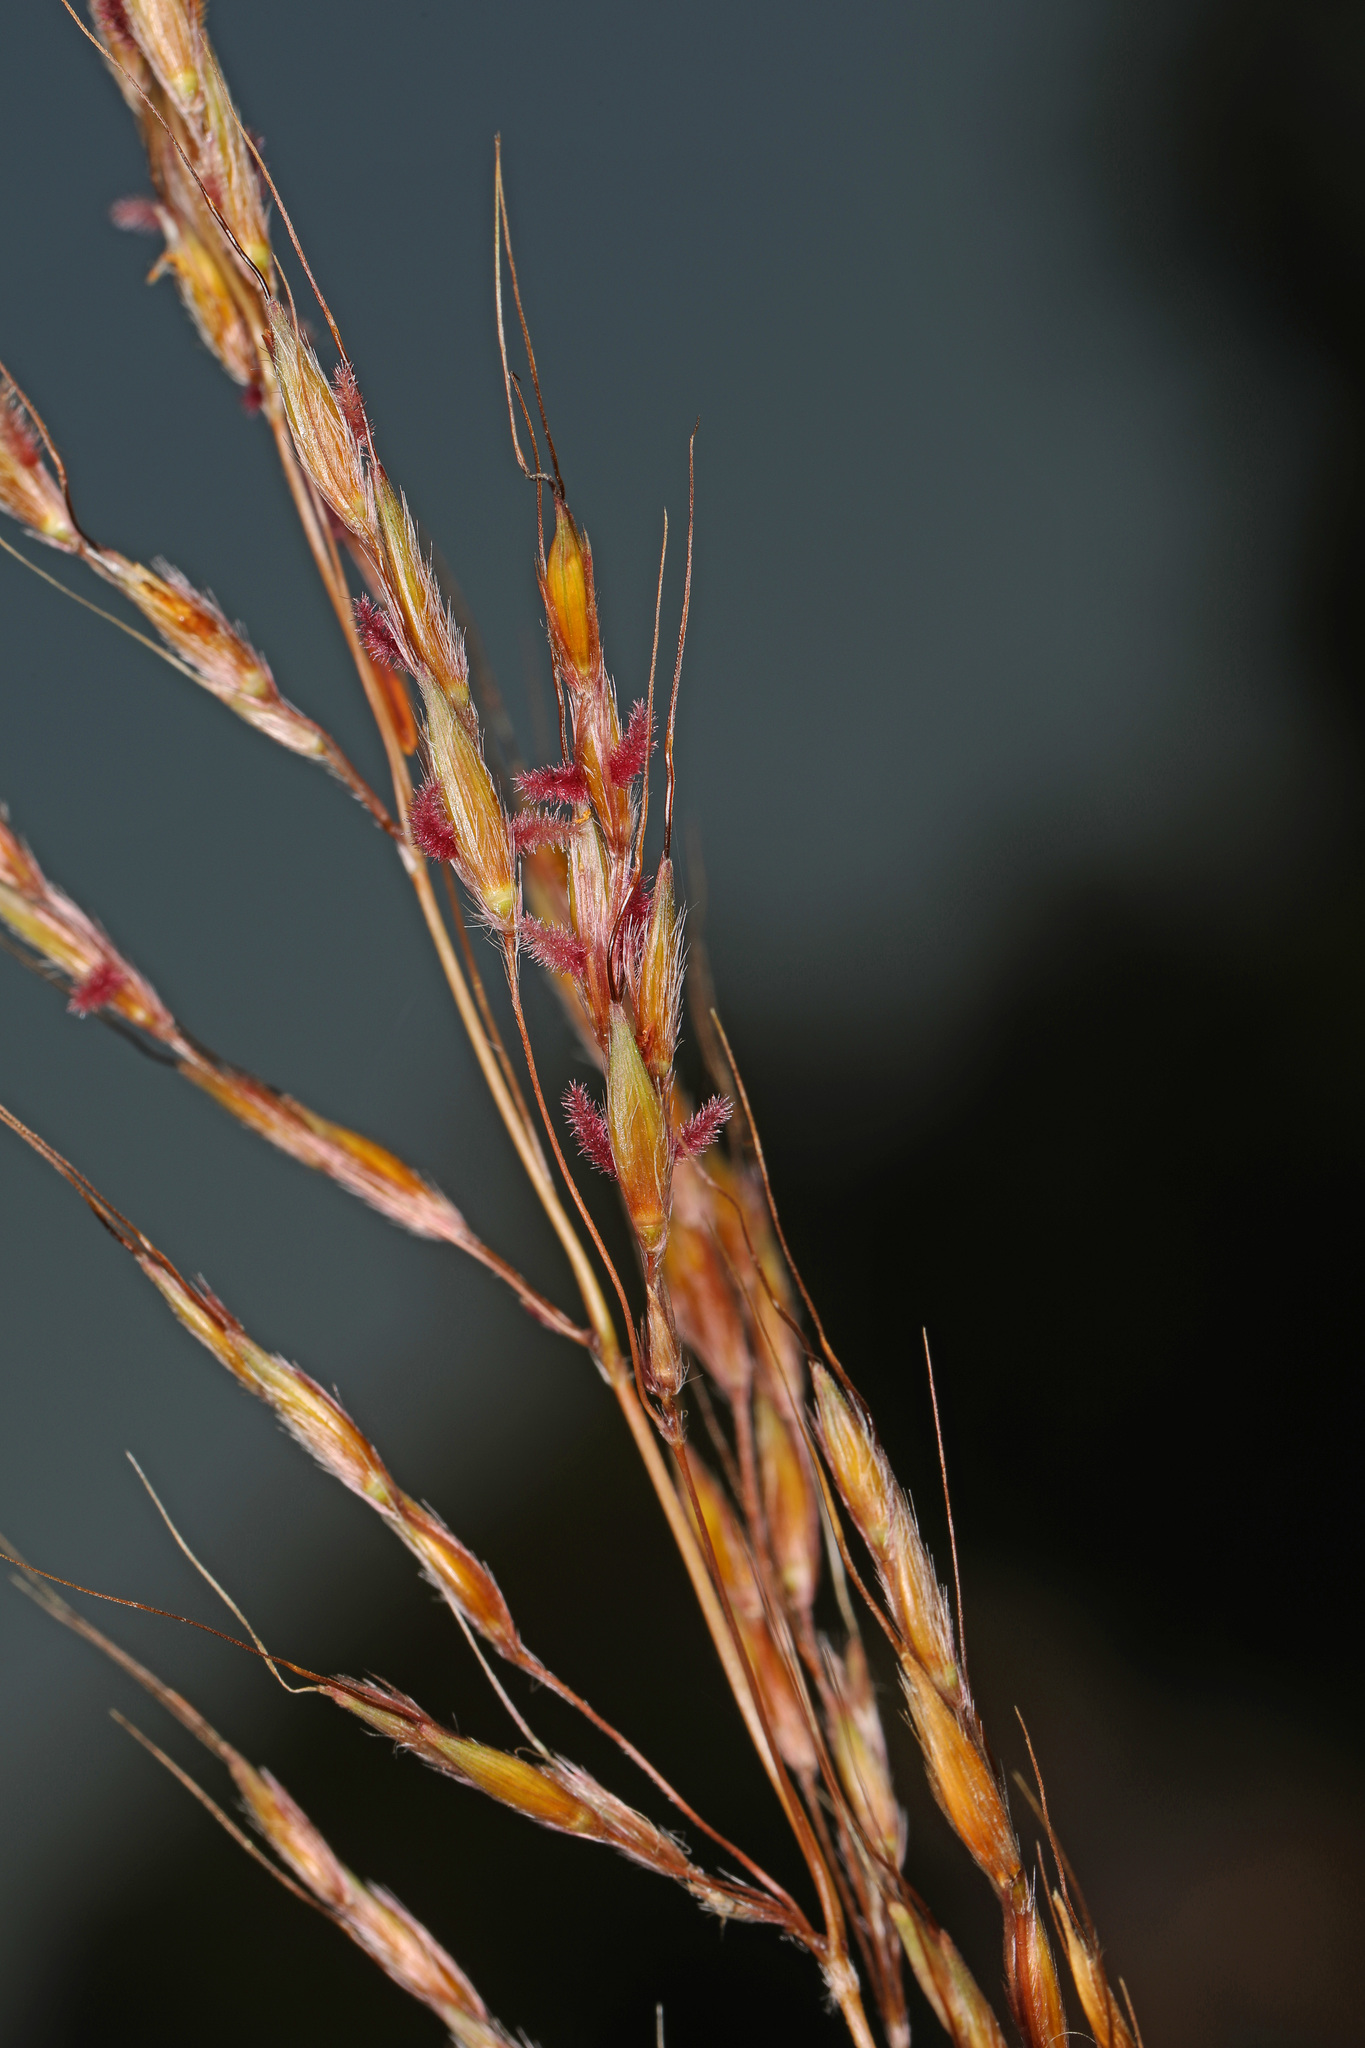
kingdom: Plantae
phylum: Tracheophyta
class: Liliopsida
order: Poales
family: Poaceae
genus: Sorghastrum
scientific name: Sorghastrum nutans
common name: Indian grass
